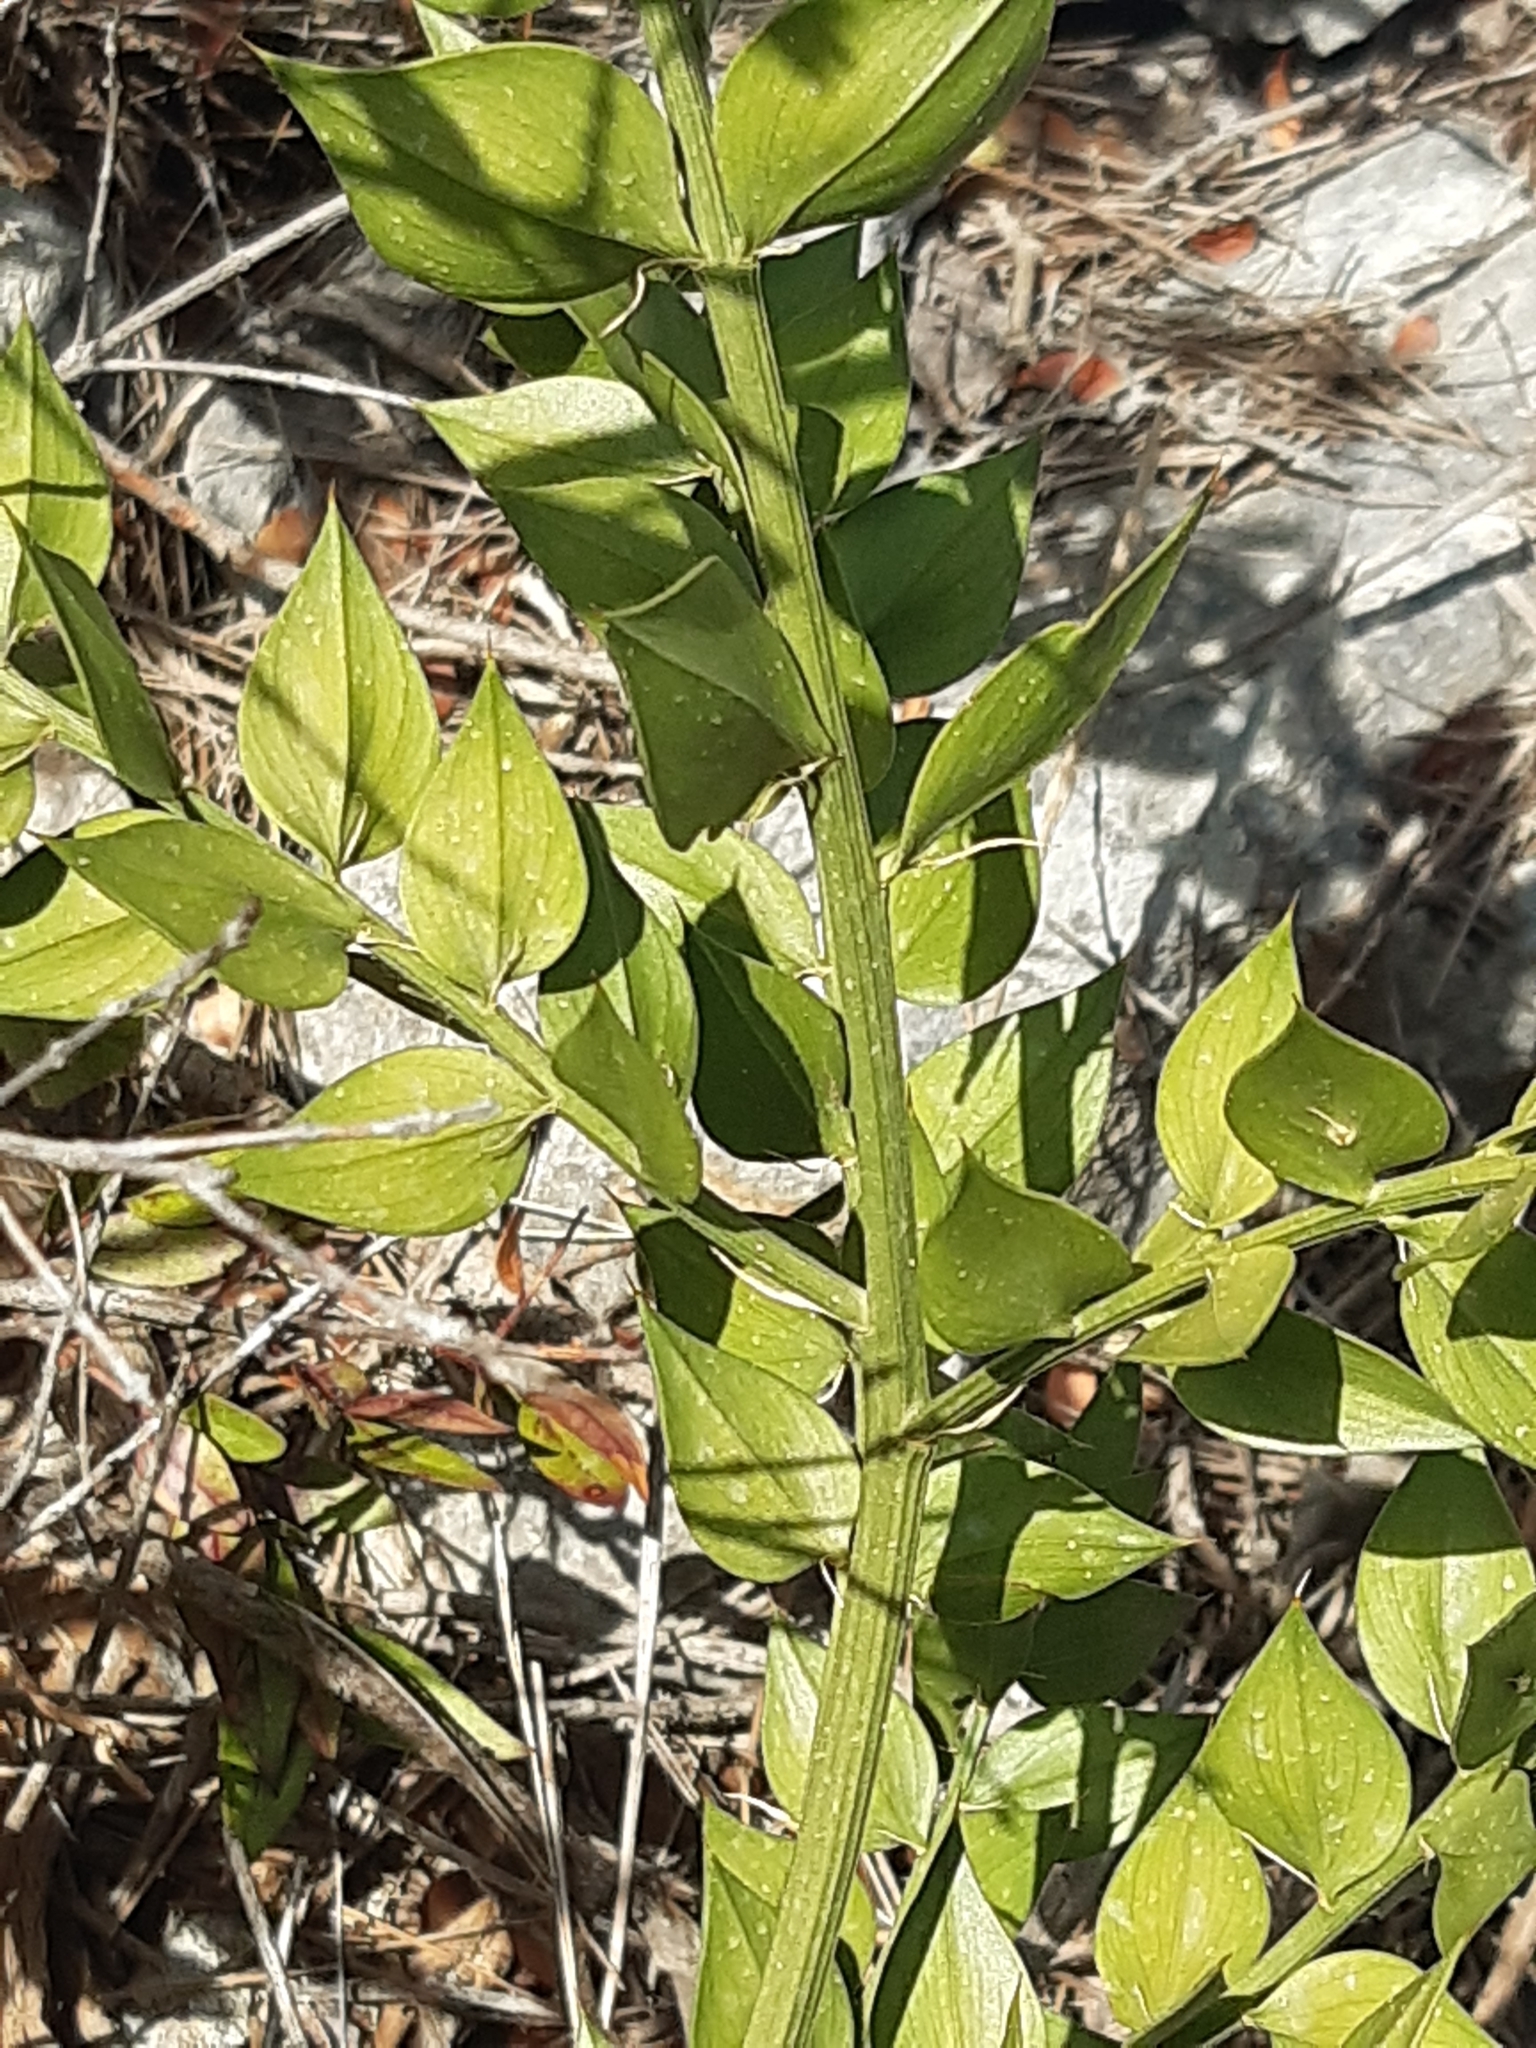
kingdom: Plantae
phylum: Tracheophyta
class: Liliopsida
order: Asparagales
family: Asparagaceae
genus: Ruscus
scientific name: Ruscus aculeatus
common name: Butcher's-broom
